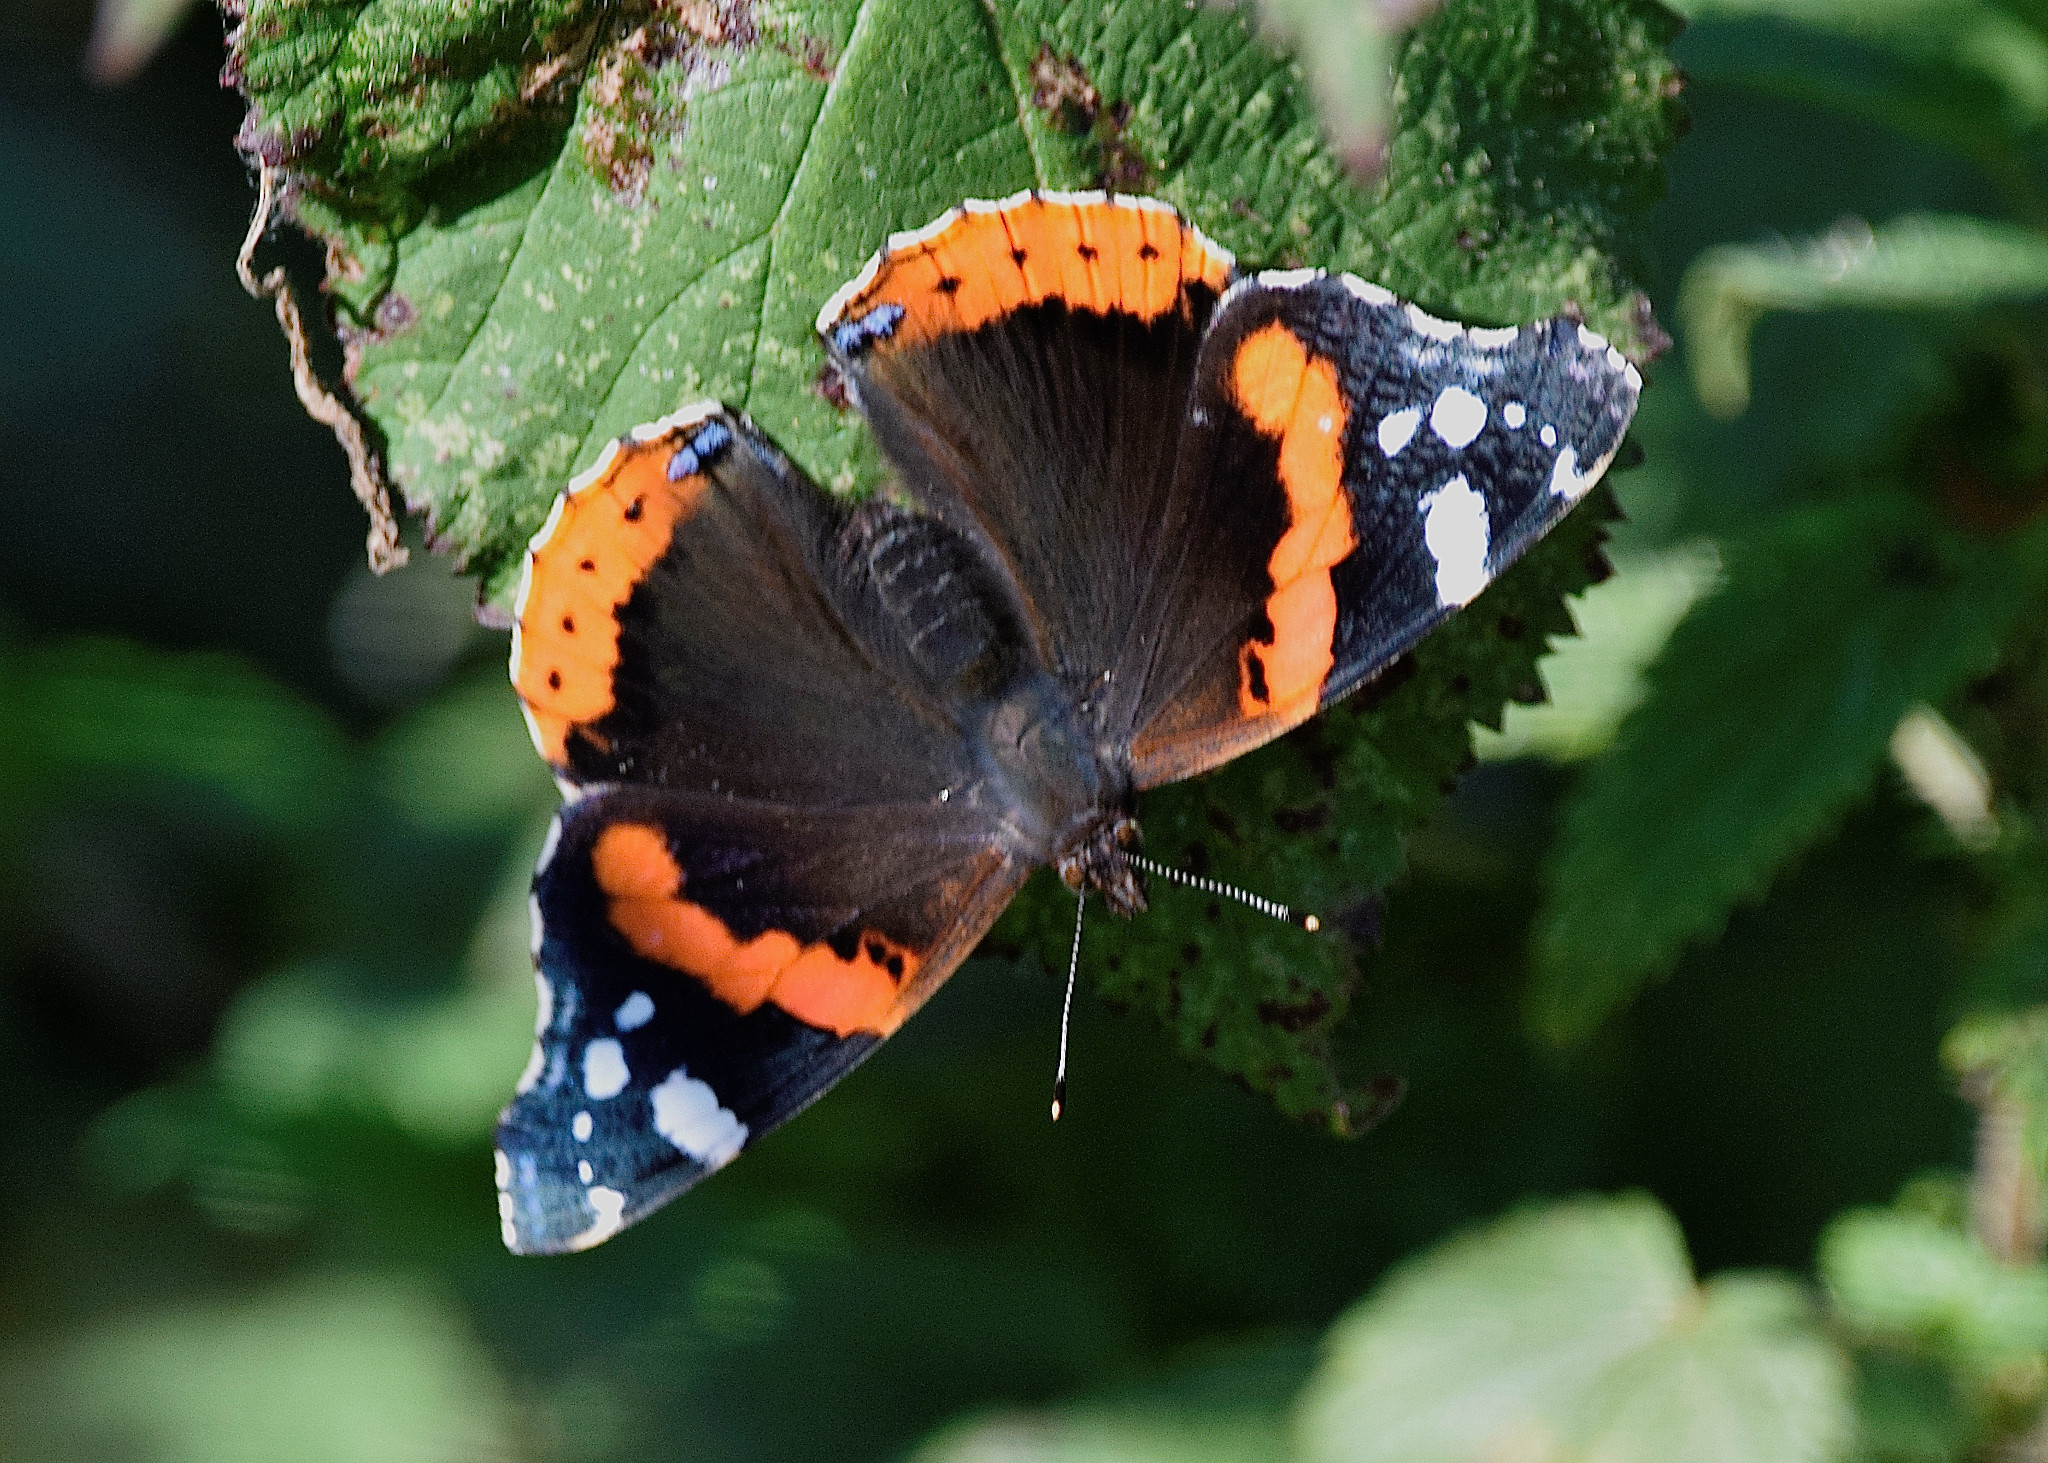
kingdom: Animalia
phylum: Arthropoda
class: Insecta
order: Lepidoptera
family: Nymphalidae
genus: Vanessa
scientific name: Vanessa atalanta
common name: Red admiral
